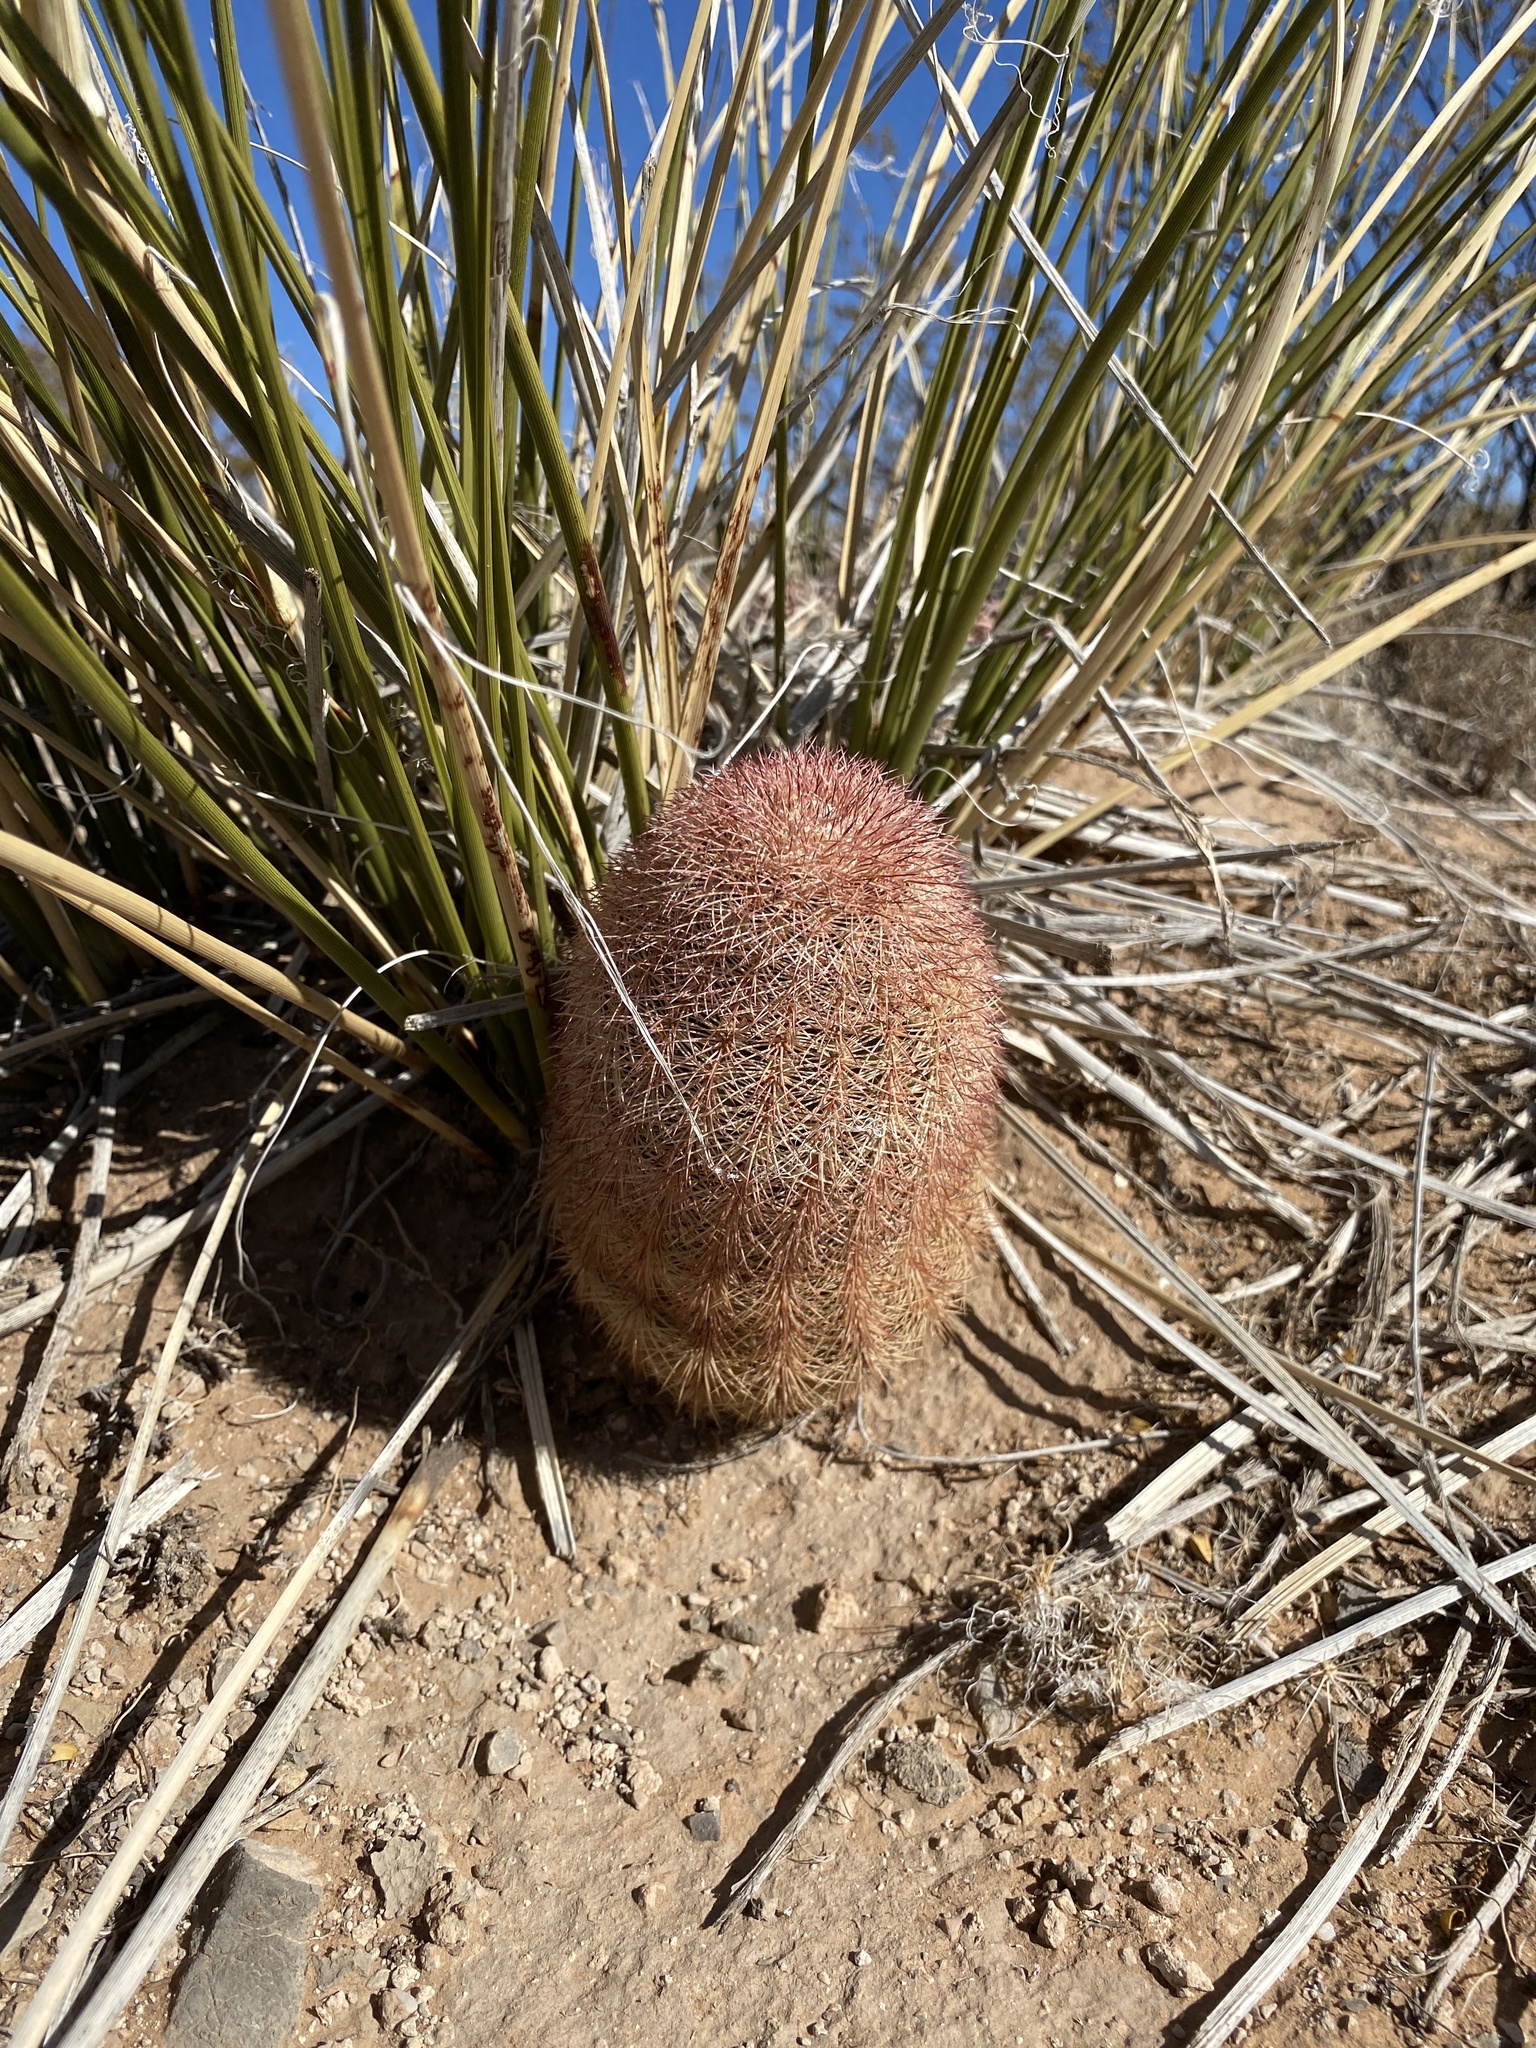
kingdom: Plantae
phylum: Tracheophyta
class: Magnoliopsida
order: Caryophyllales
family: Cactaceae
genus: Echinocereus
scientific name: Echinocereus dasyacanthus
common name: Spiny hedgehog cactus
